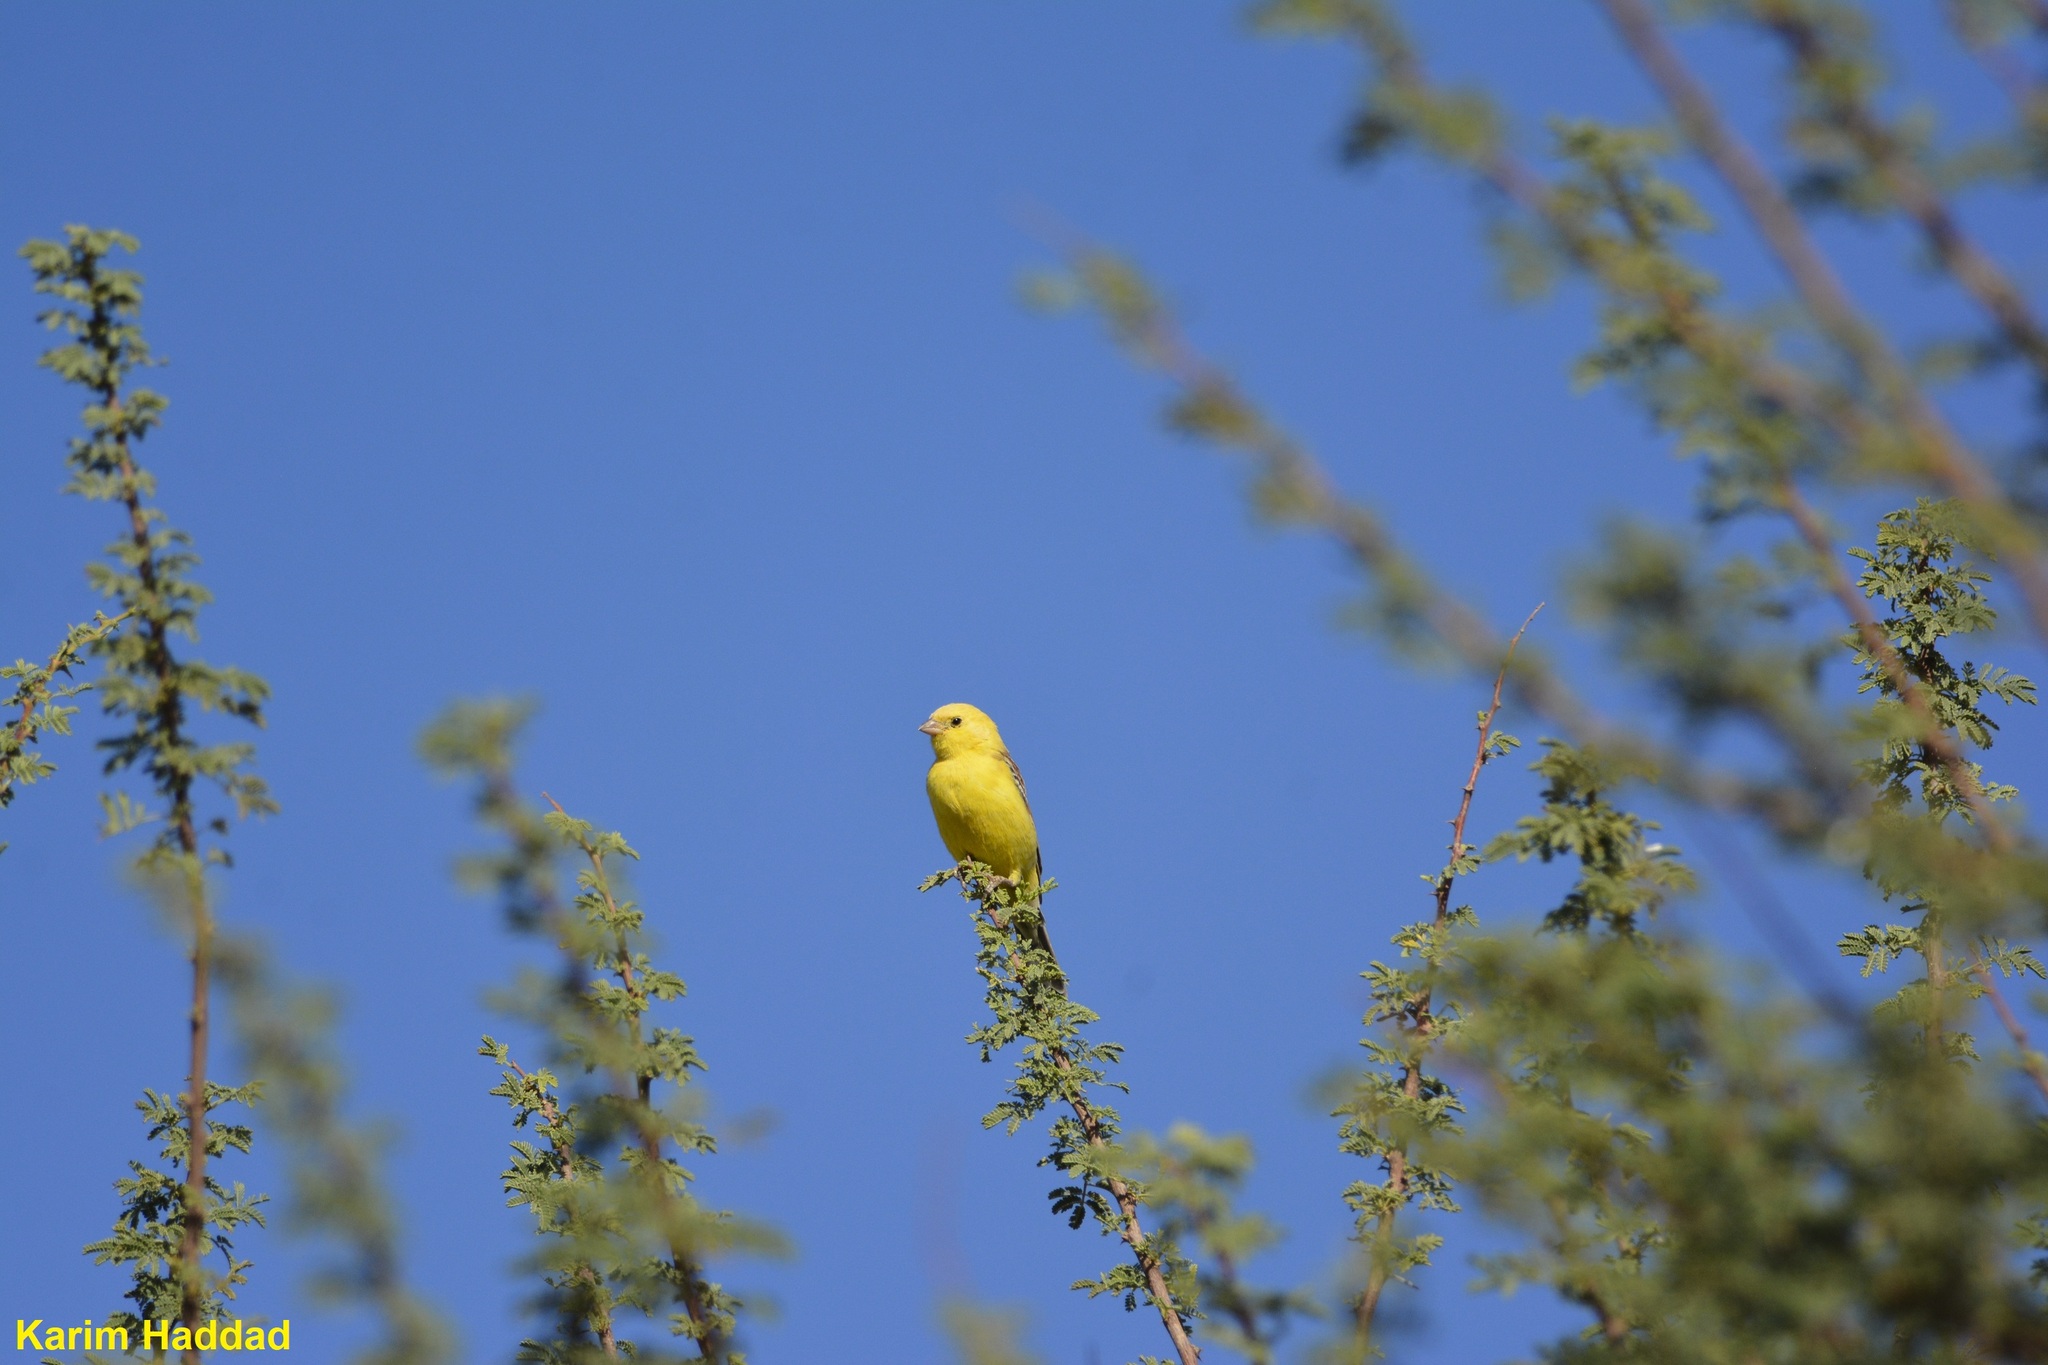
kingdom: Animalia
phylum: Chordata
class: Aves
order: Passeriformes
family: Passeridae
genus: Passer
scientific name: Passer luteus
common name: Sudan golden sparrow
